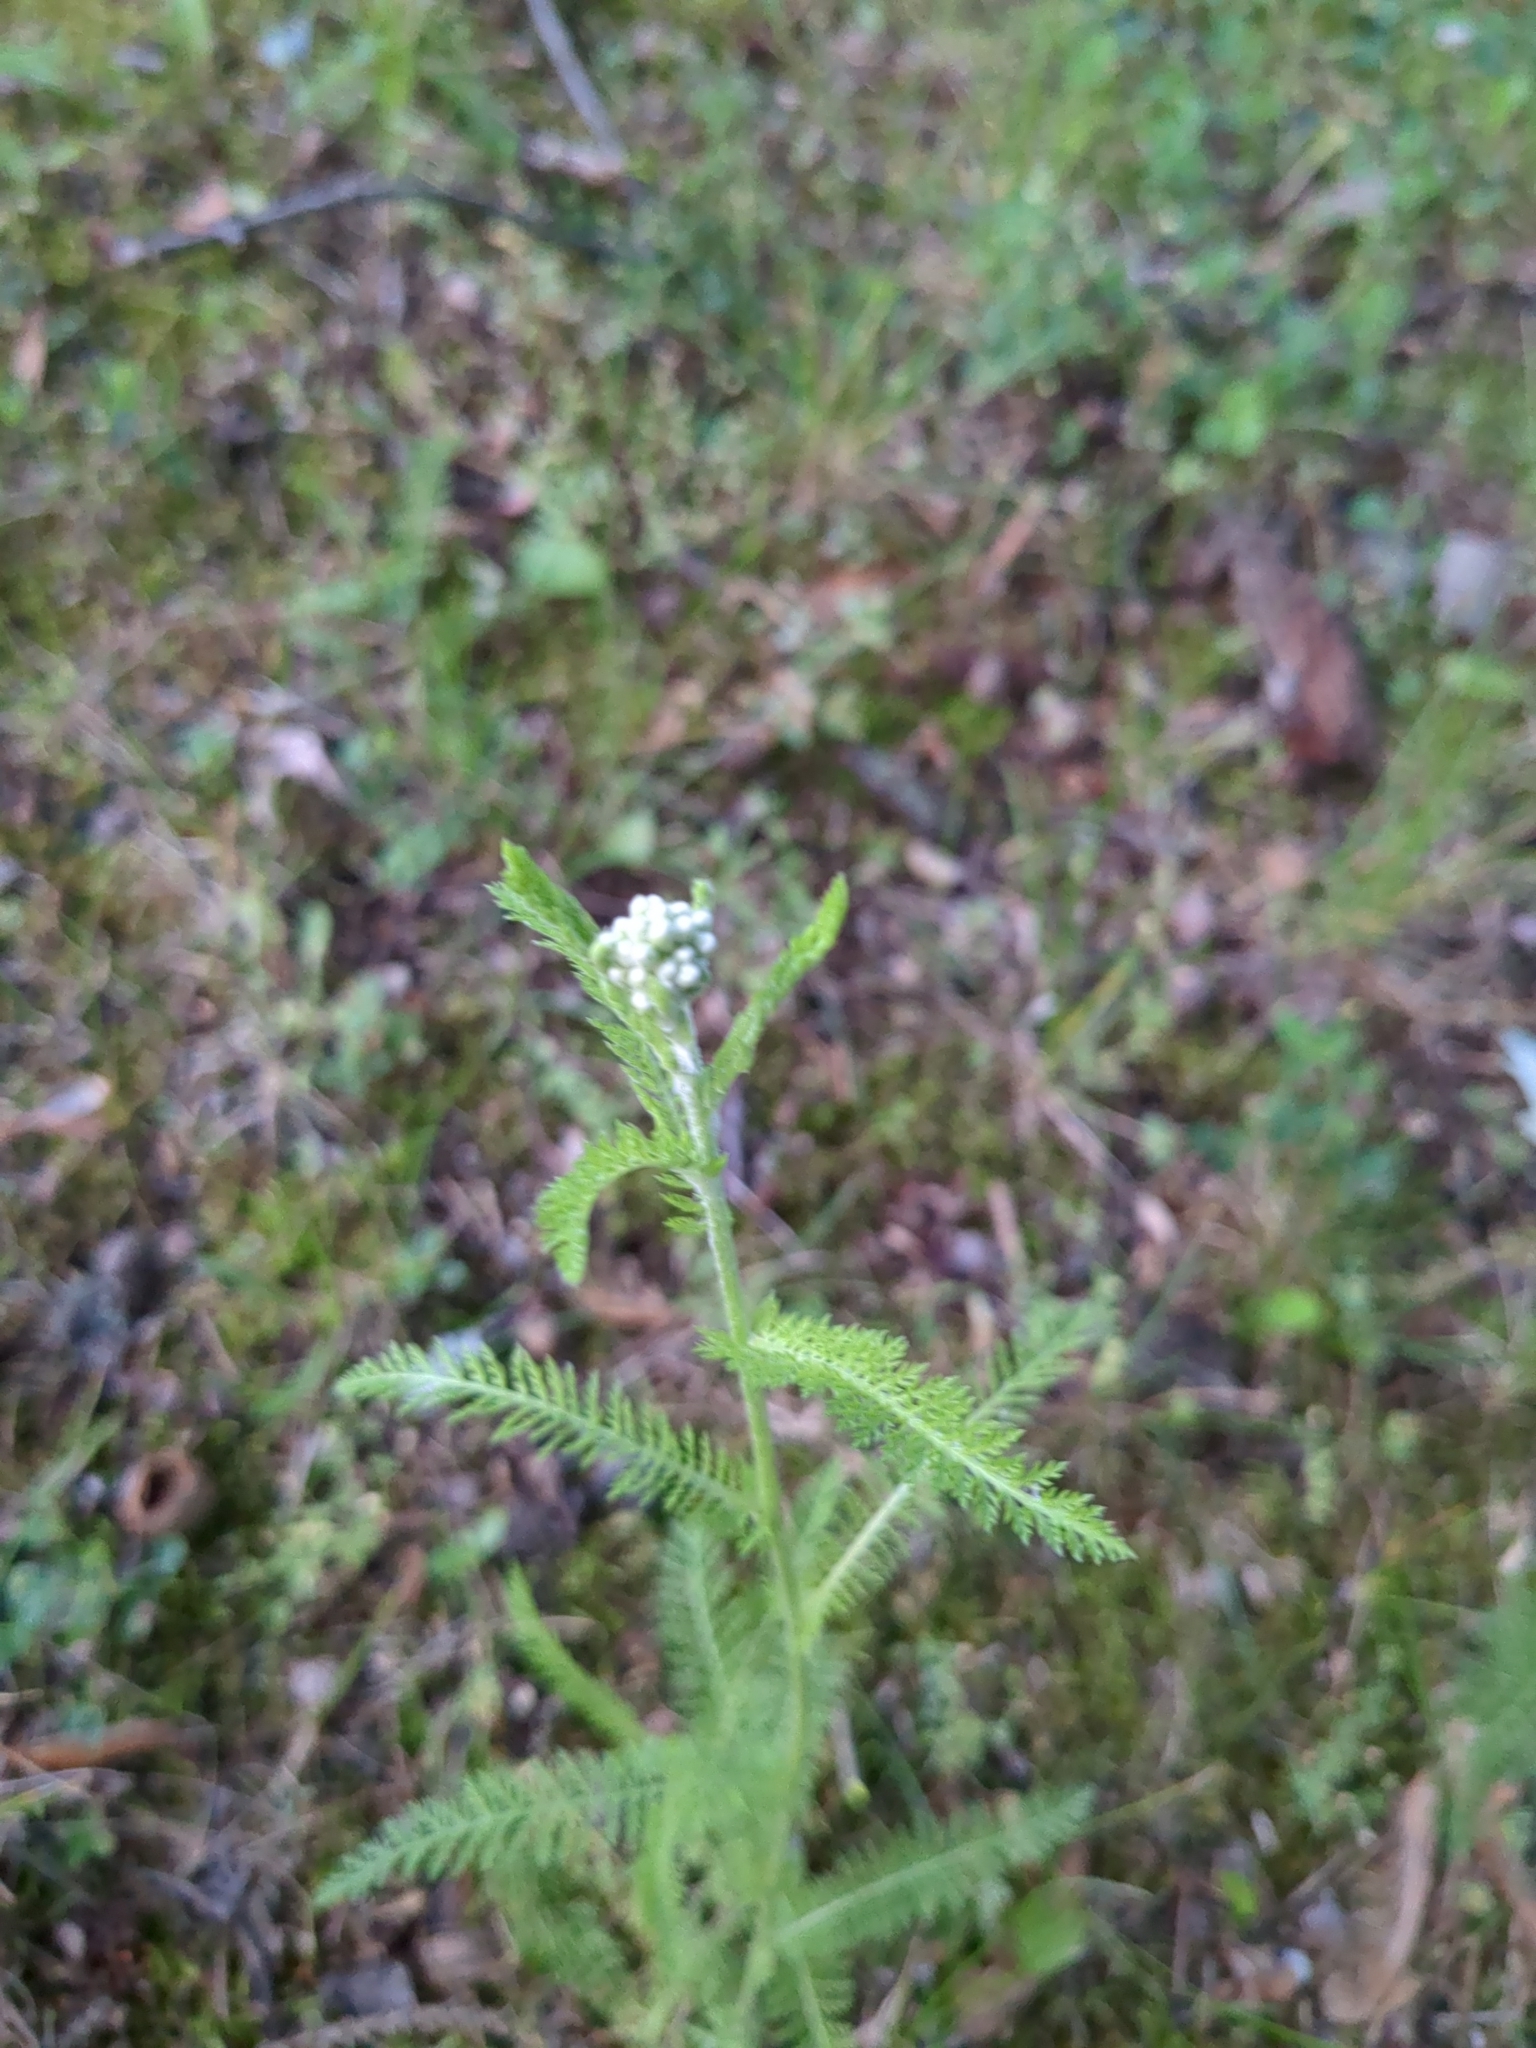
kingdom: Plantae
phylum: Tracheophyta
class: Magnoliopsida
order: Asterales
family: Asteraceae
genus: Achillea
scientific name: Achillea millefolium
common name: Yarrow
